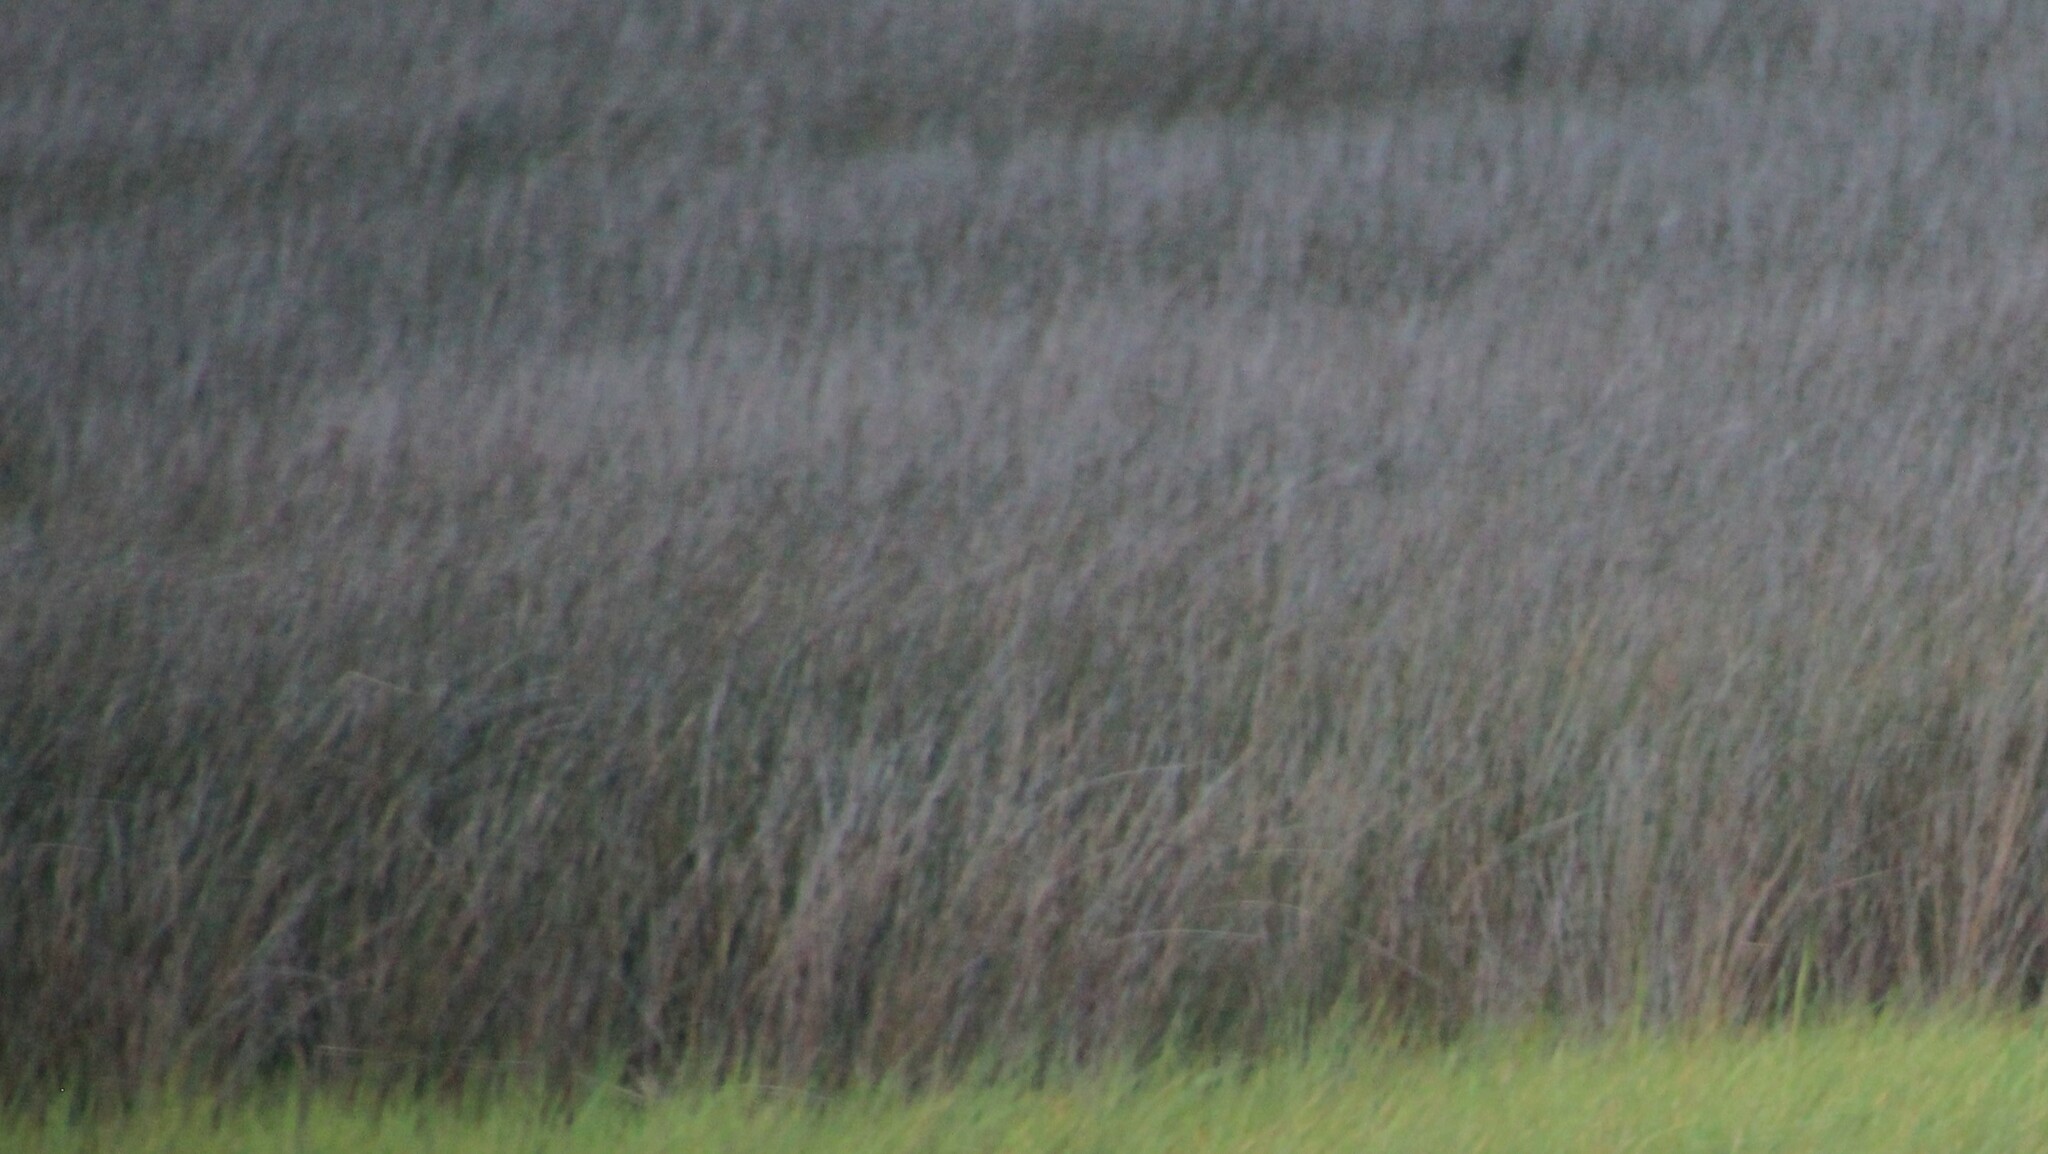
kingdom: Plantae
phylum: Tracheophyta
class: Liliopsida
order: Poales
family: Juncaceae
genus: Juncus
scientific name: Juncus roemerianus
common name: Roemer's rush
